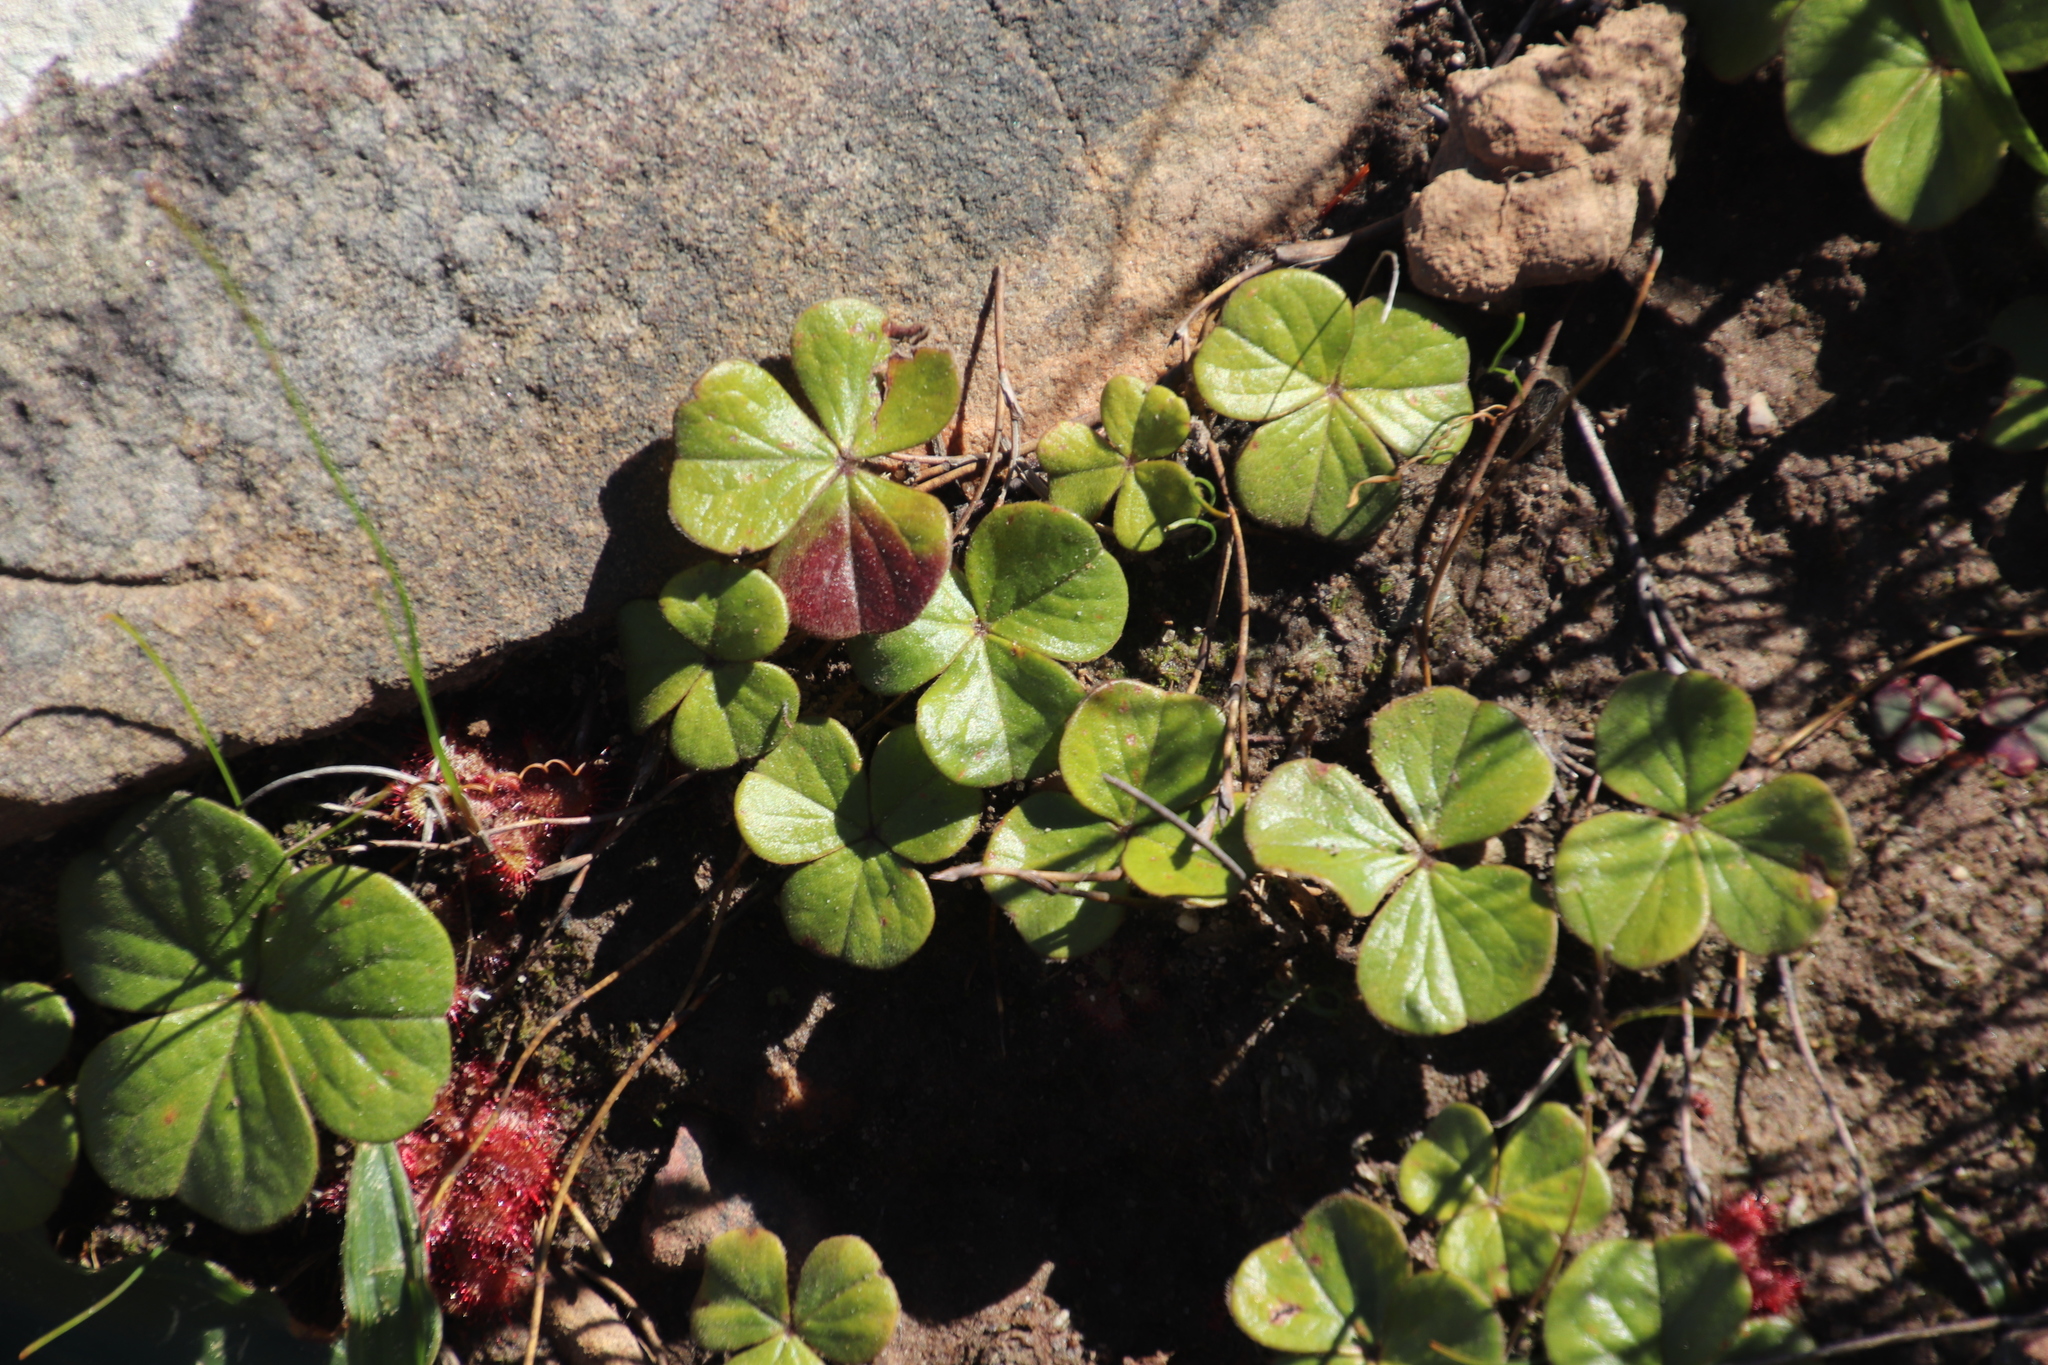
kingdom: Plantae
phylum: Tracheophyta
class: Magnoliopsida
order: Oxalidales
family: Oxalidaceae
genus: Oxalis
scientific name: Oxalis truncatula
